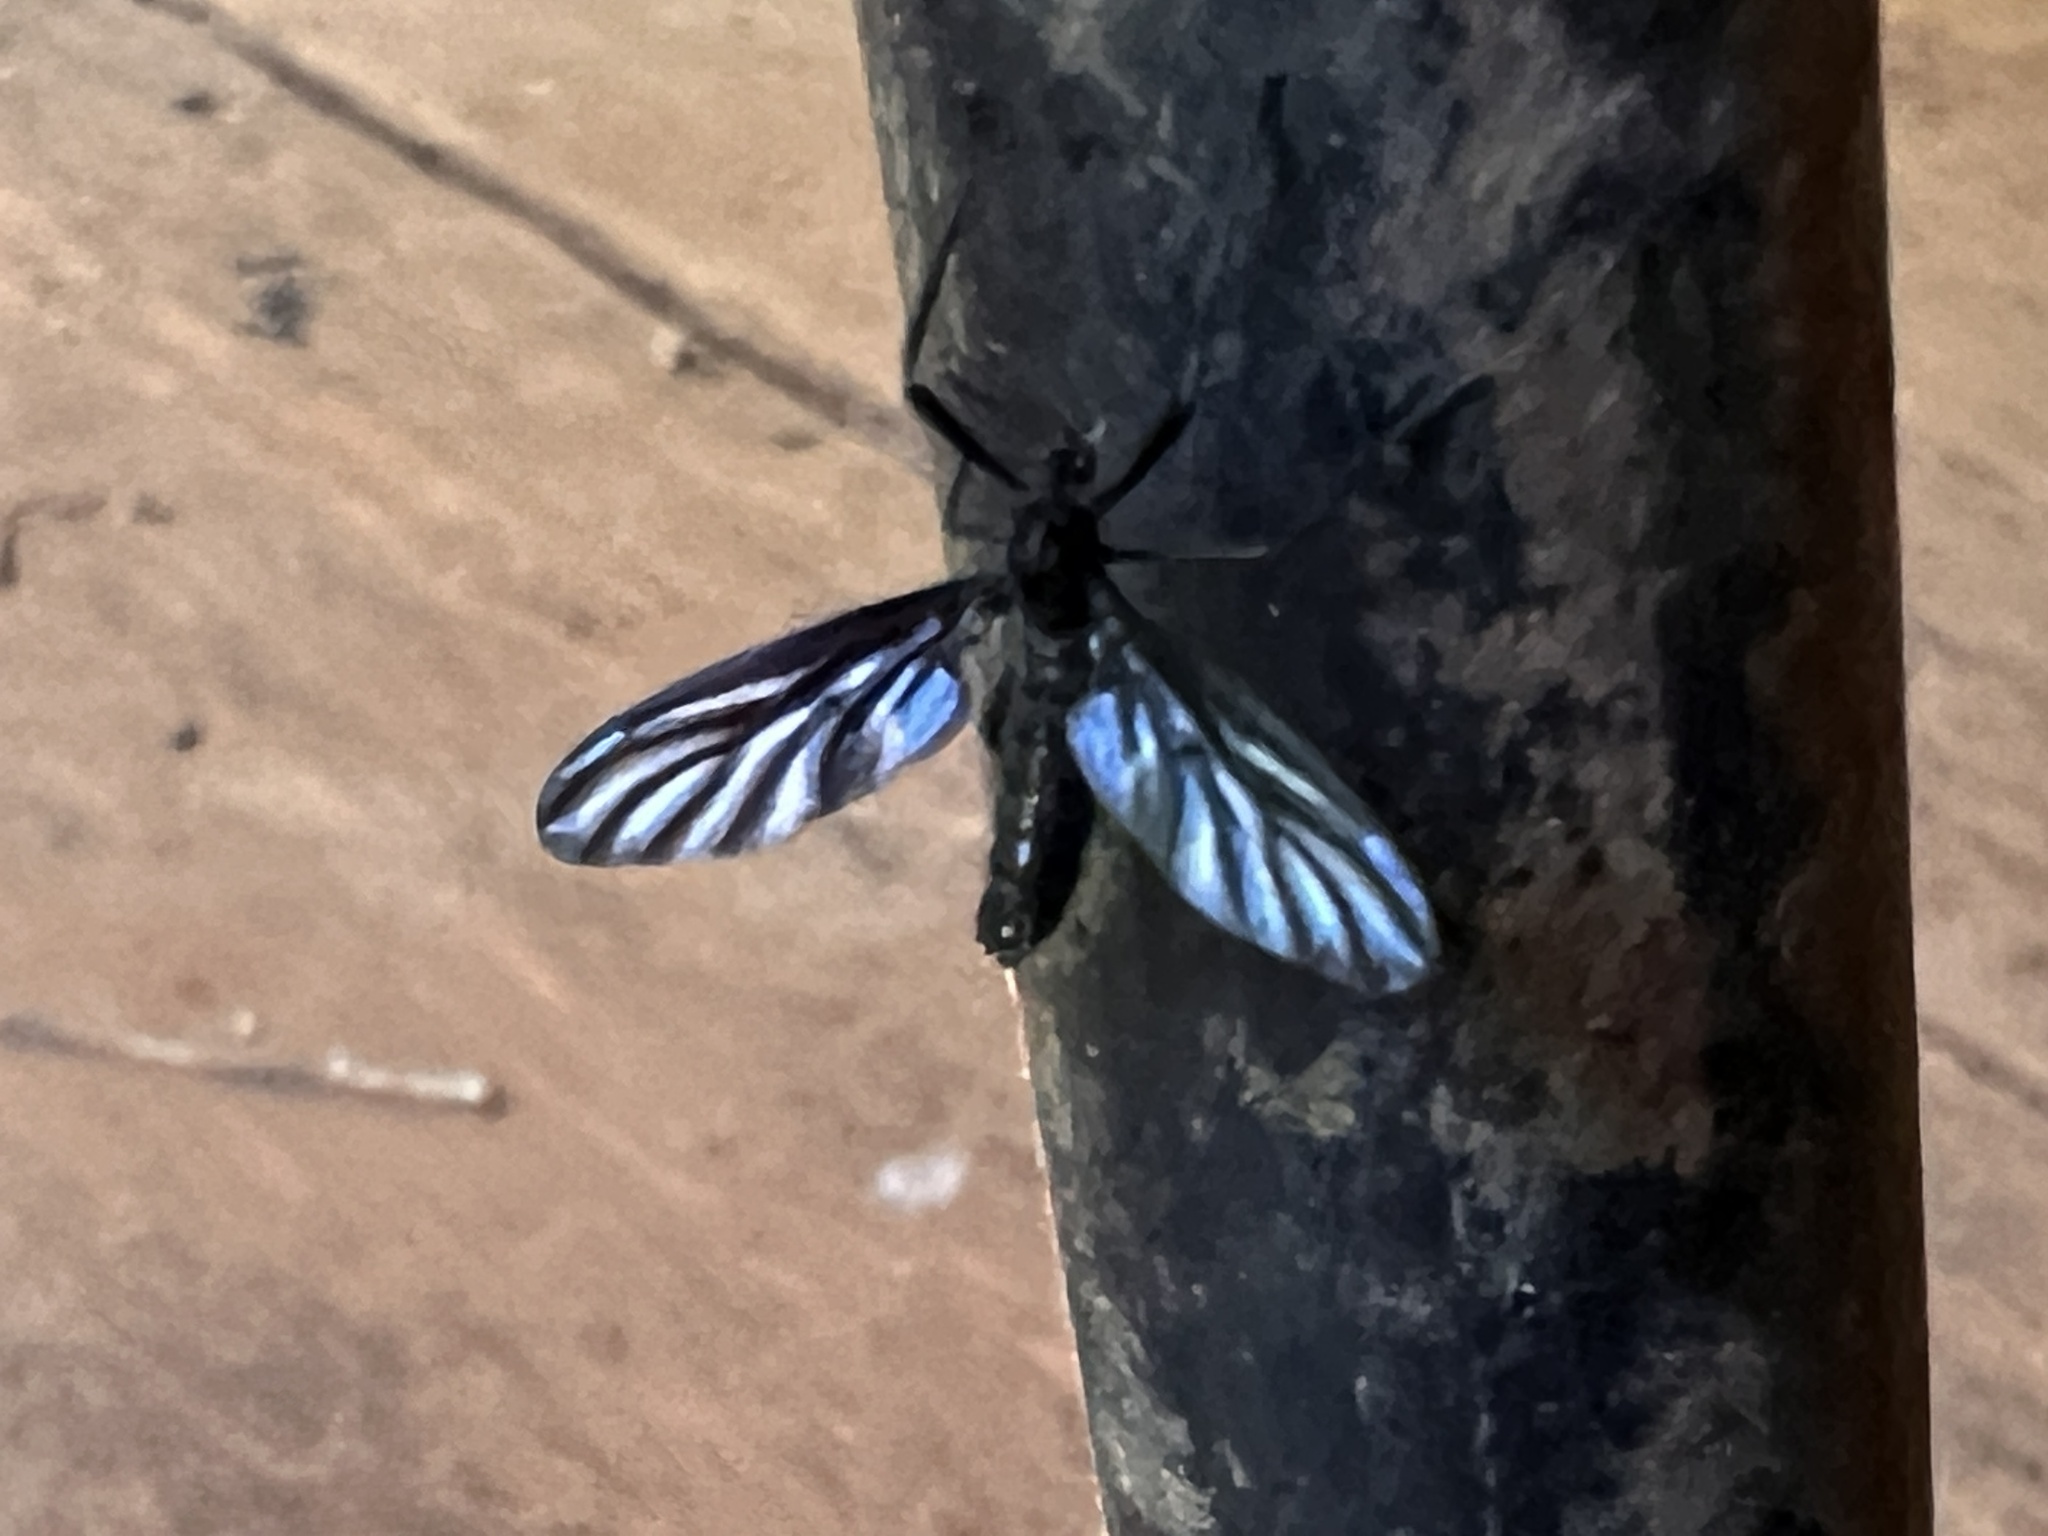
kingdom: Animalia
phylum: Arthropoda
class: Insecta
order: Diptera
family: Bibionidae
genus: Plecia
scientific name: Plecia plagiata
